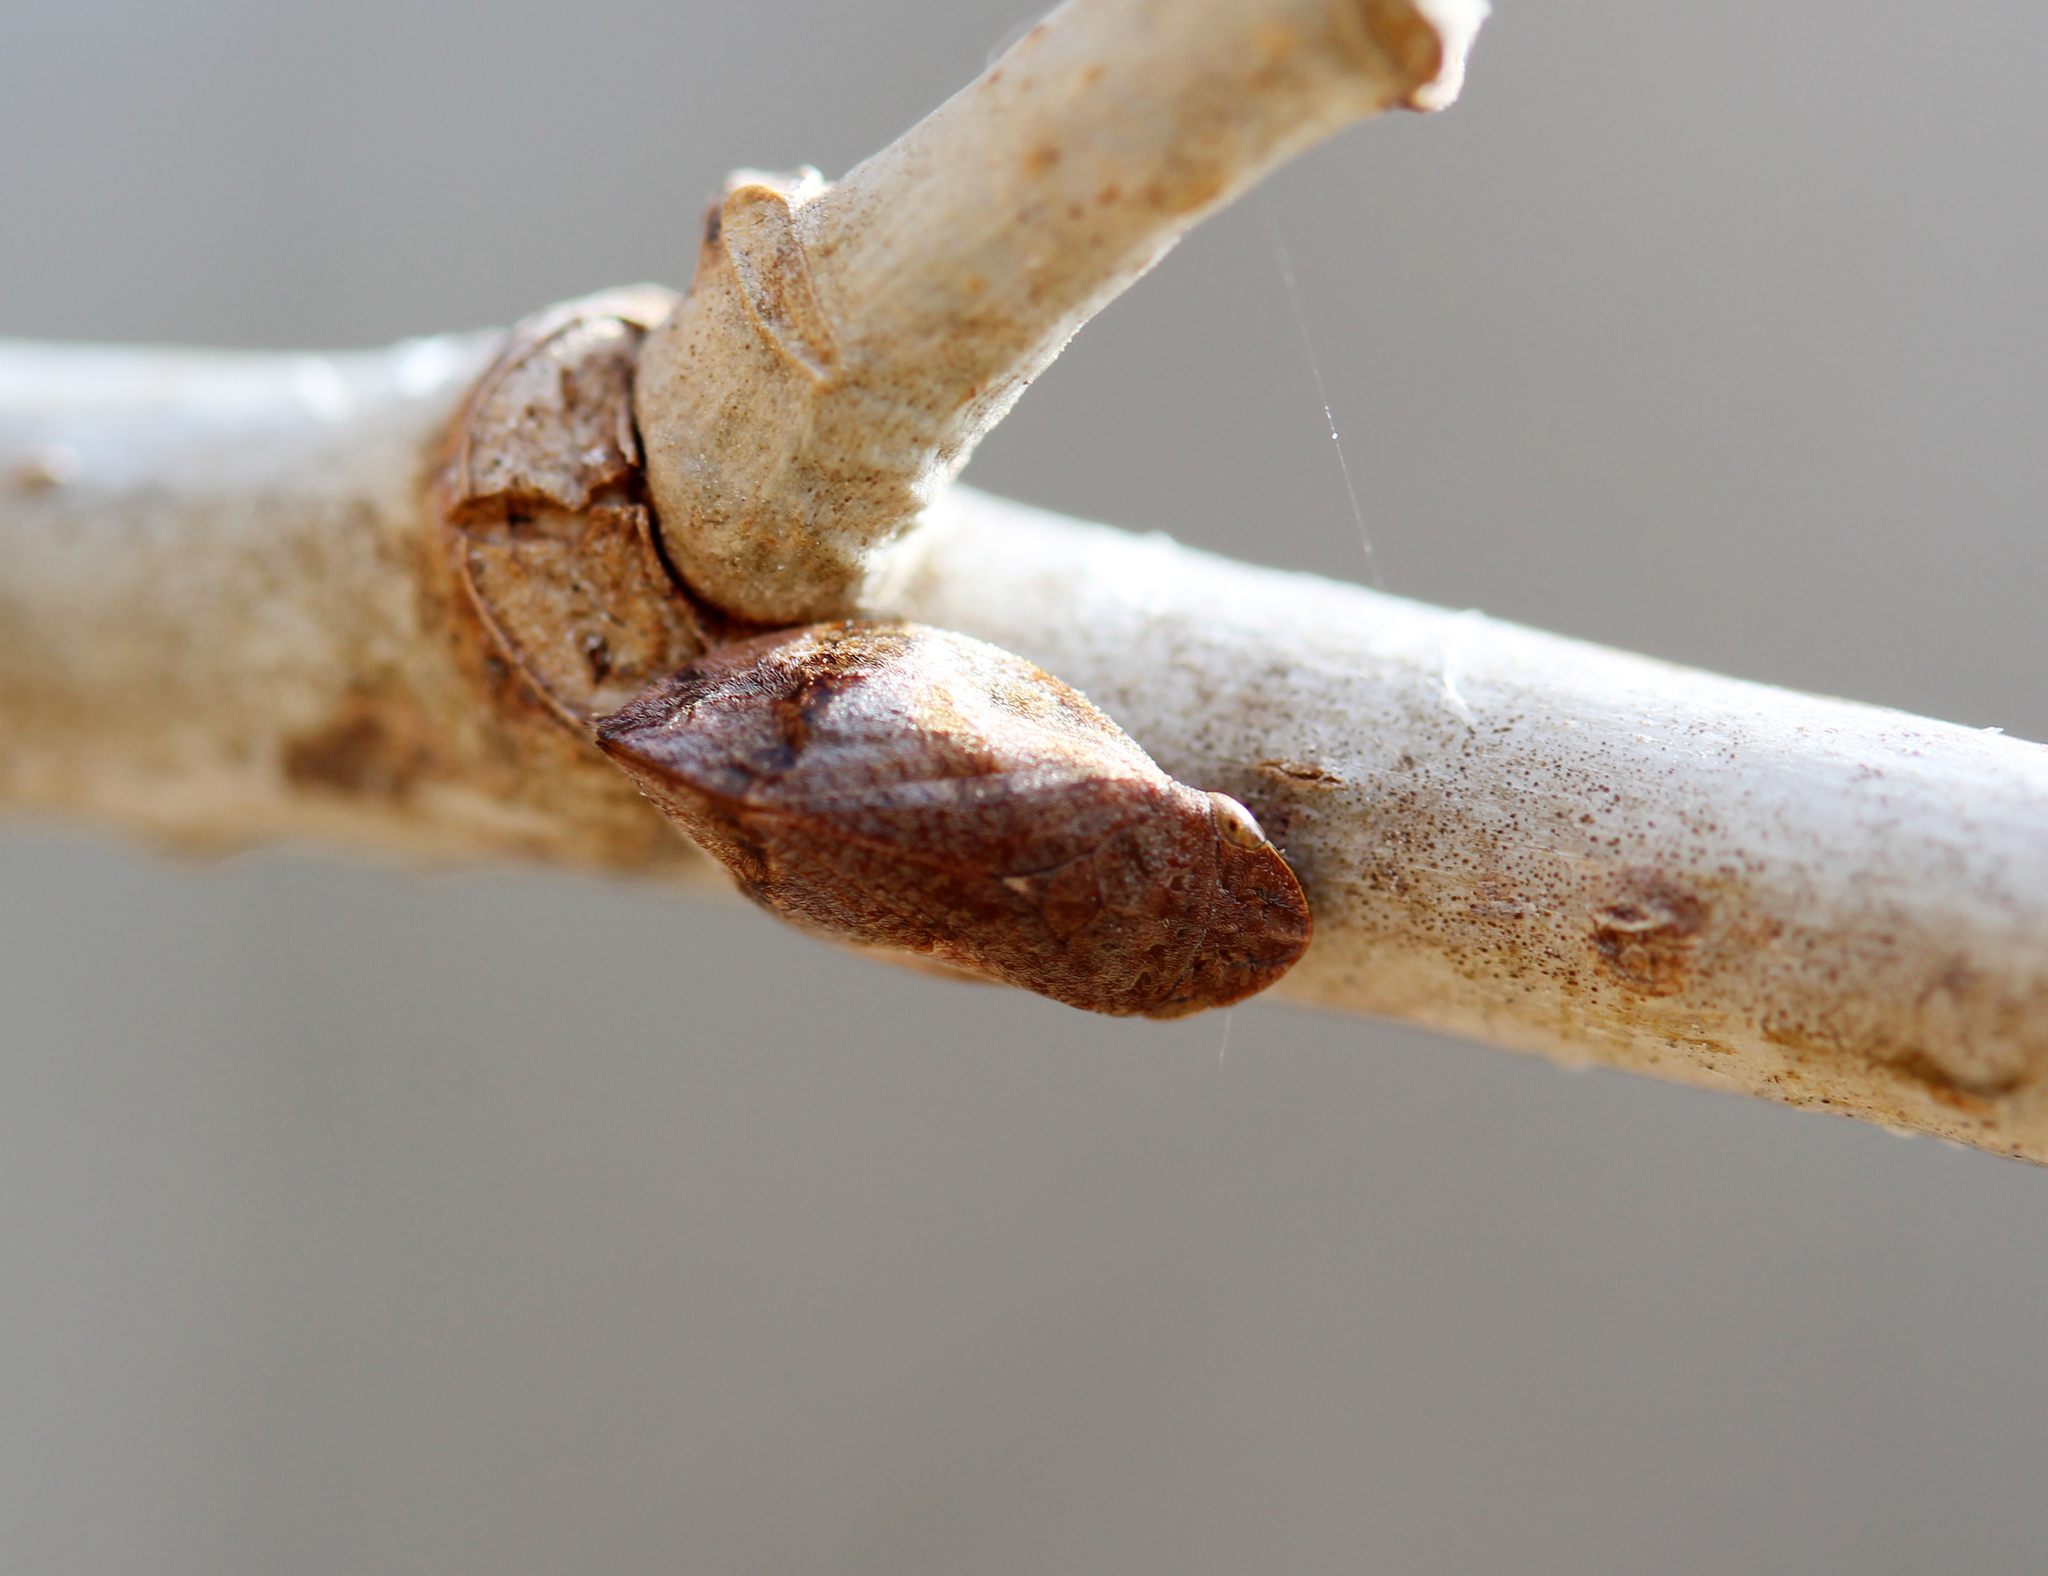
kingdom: Animalia
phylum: Arthropoda
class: Insecta
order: Hemiptera
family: Aphrophoridae
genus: Lepyronia
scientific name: Lepyronia quadrangularis
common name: Diamond-backed spittlebug
